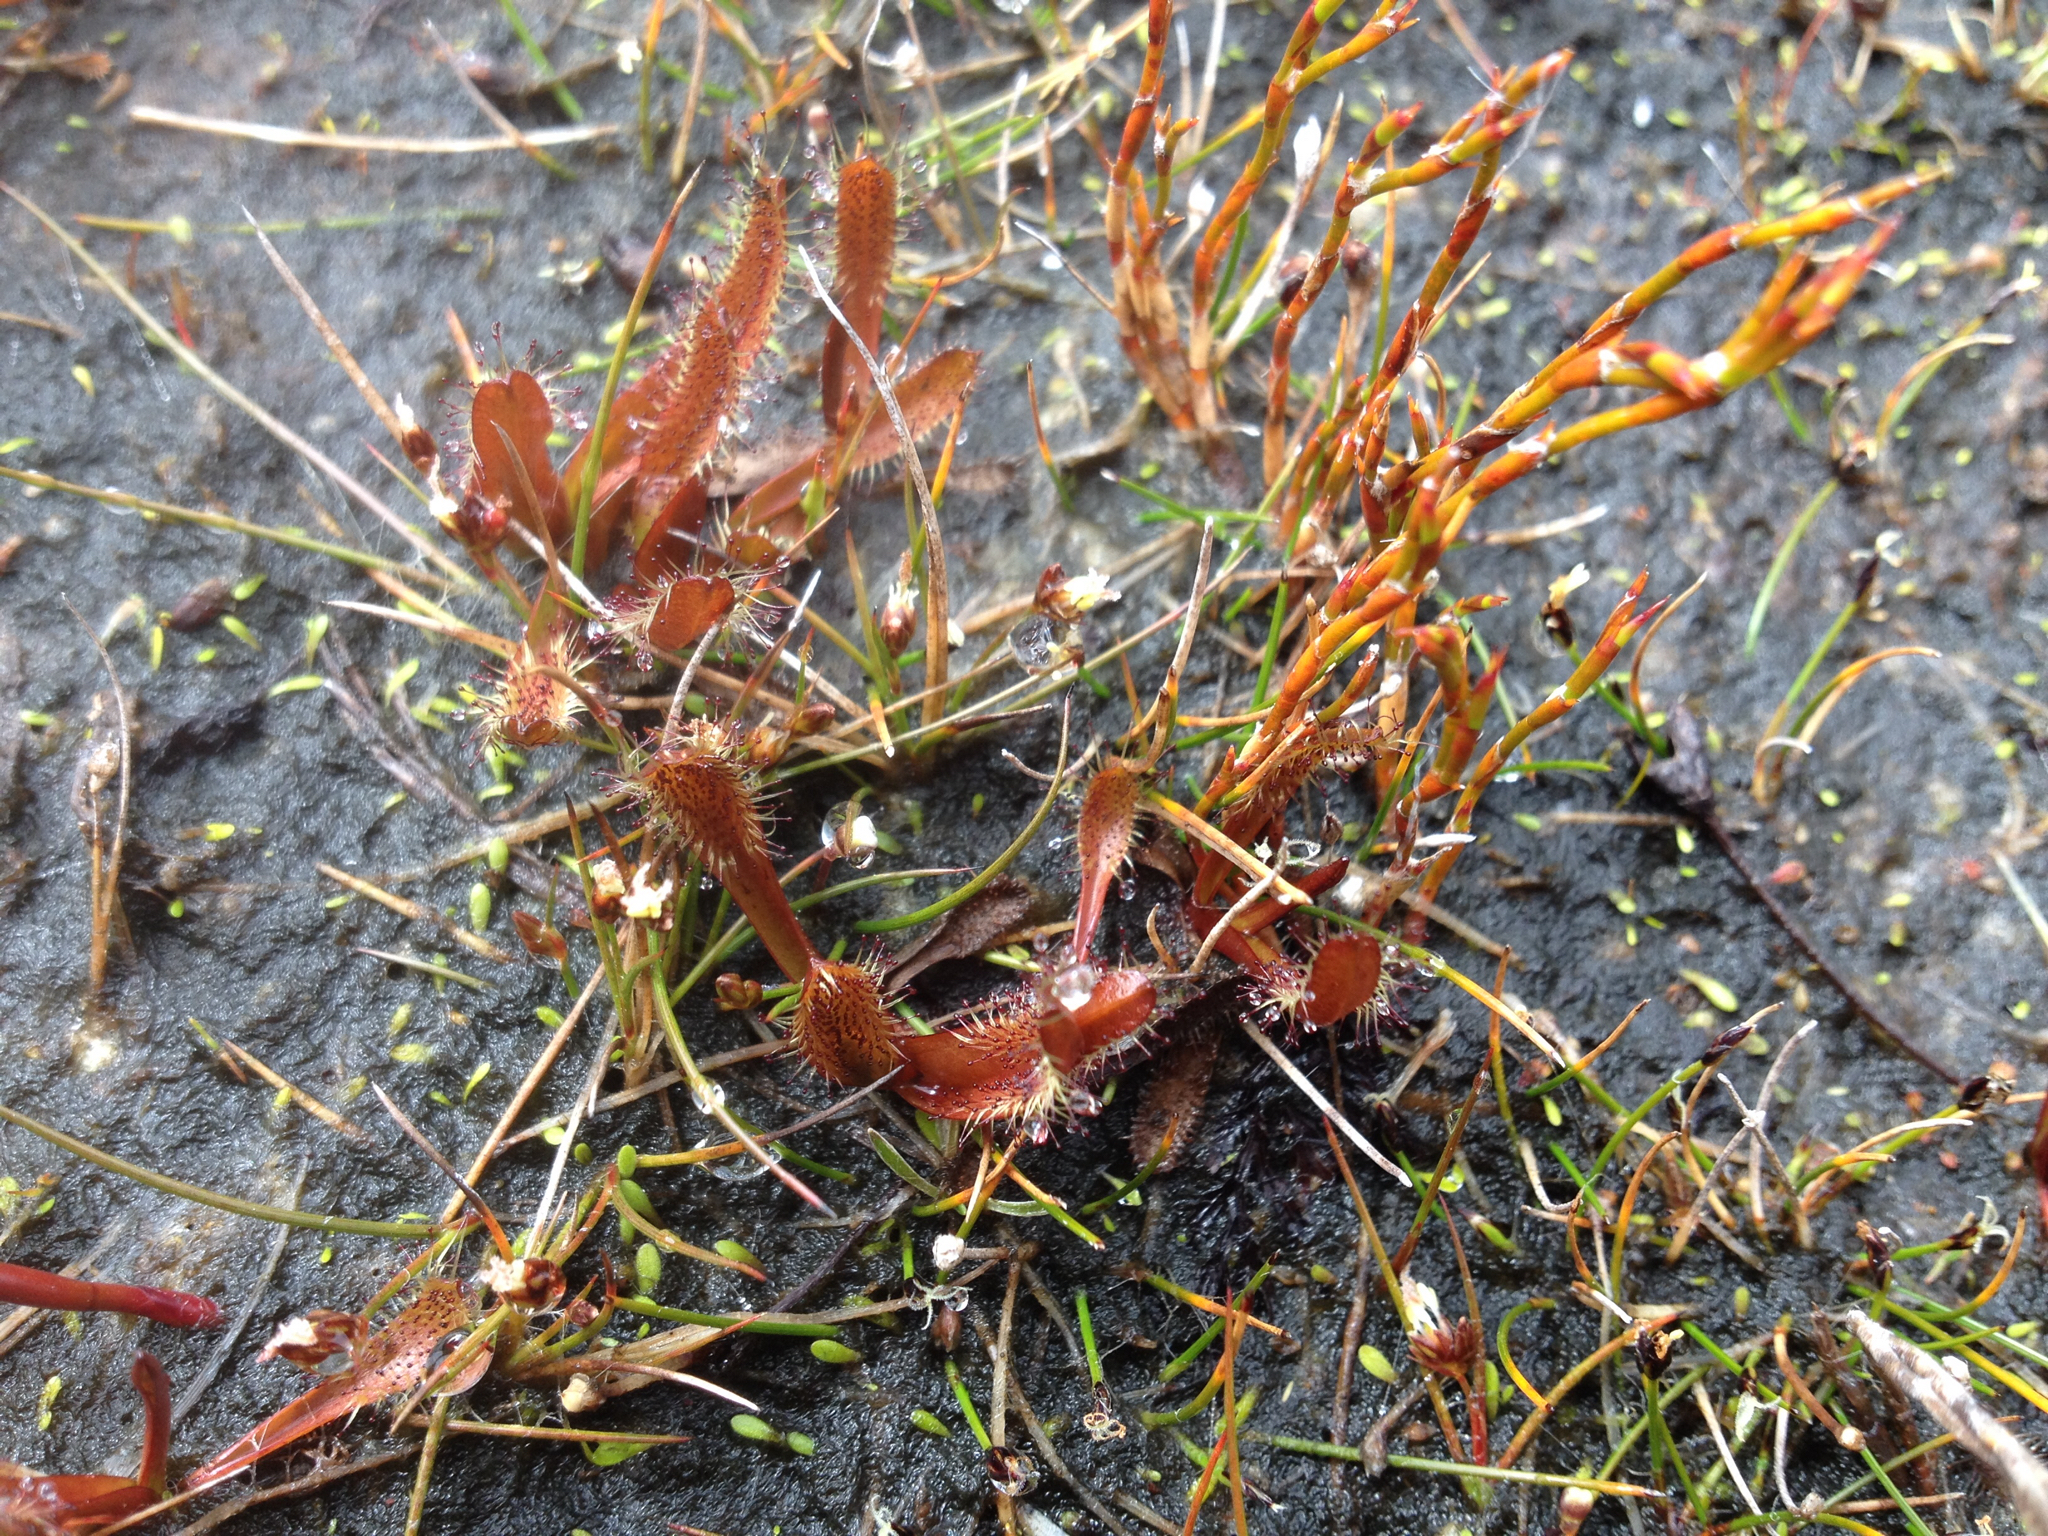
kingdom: Plantae
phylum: Tracheophyta
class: Magnoliopsida
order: Caryophyllales
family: Droseraceae
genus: Drosera
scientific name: Drosera arcturi
